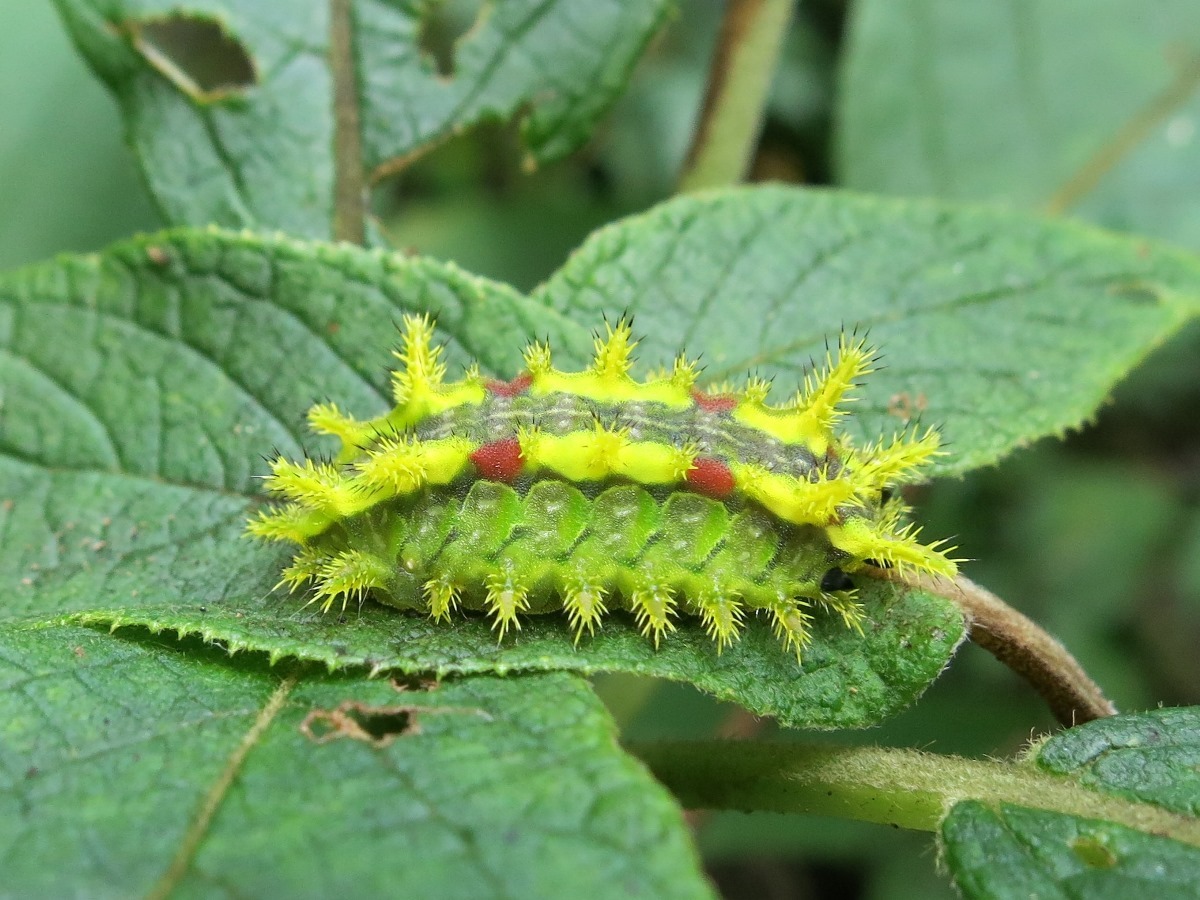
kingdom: Animalia
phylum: Arthropoda
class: Insecta
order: Lepidoptera
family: Limacodidae
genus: Euclea
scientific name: Euclea delphinii
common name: Spiny oak-slug moth
